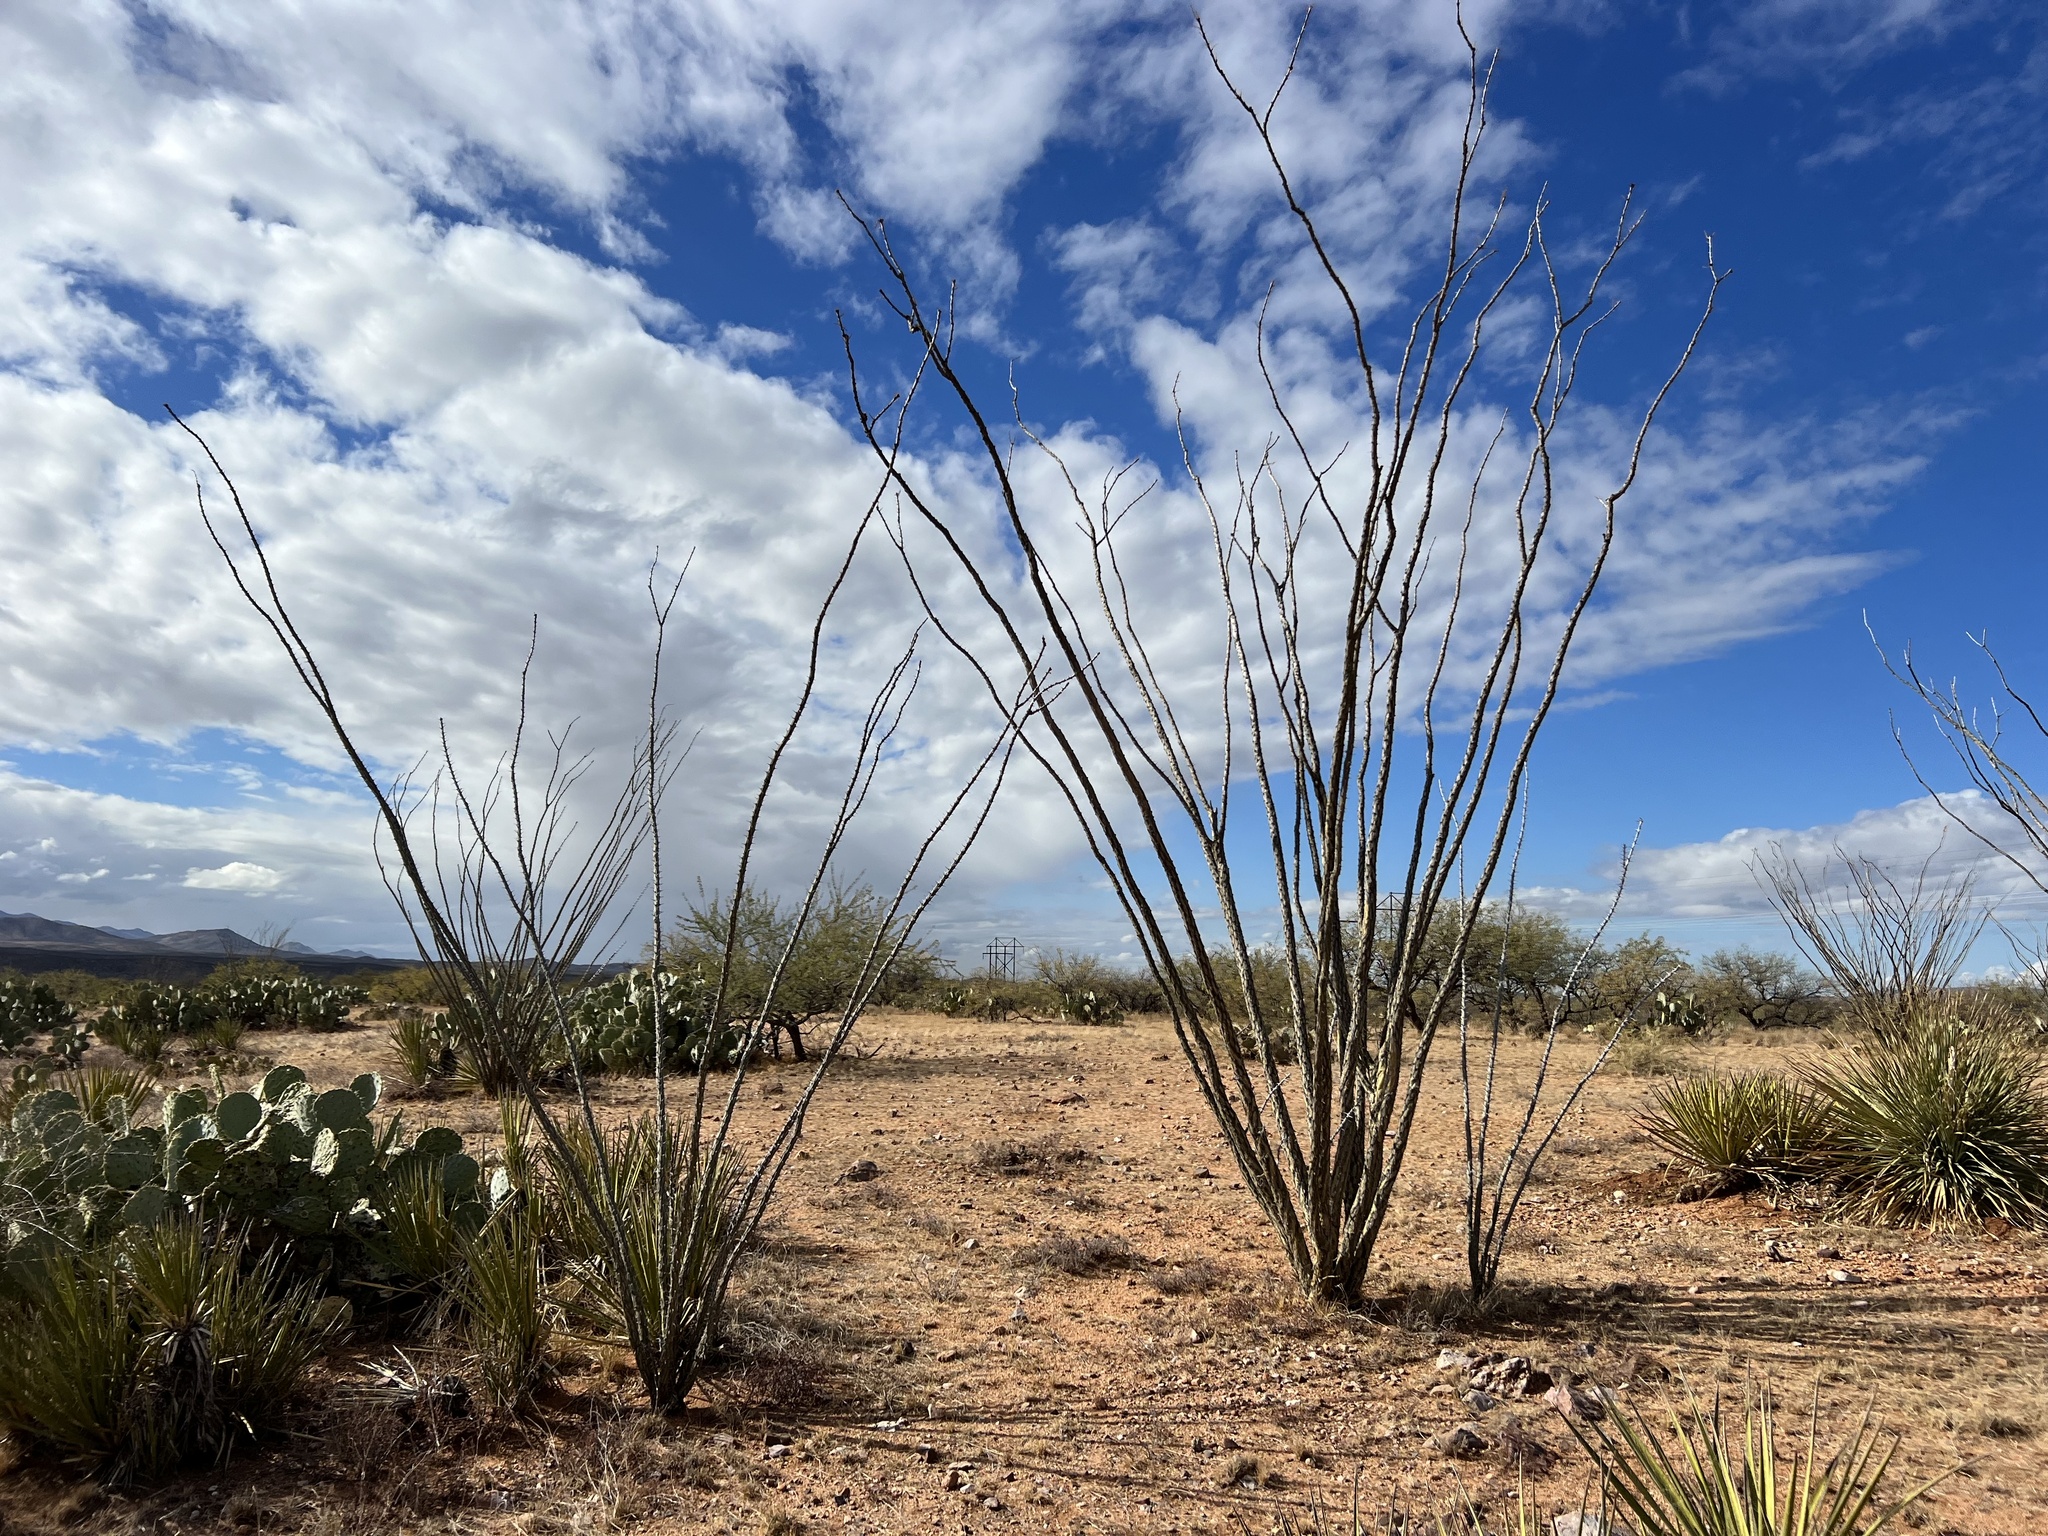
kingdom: Plantae
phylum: Tracheophyta
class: Magnoliopsida
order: Ericales
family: Fouquieriaceae
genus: Fouquieria
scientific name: Fouquieria splendens
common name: Vine-cactus
